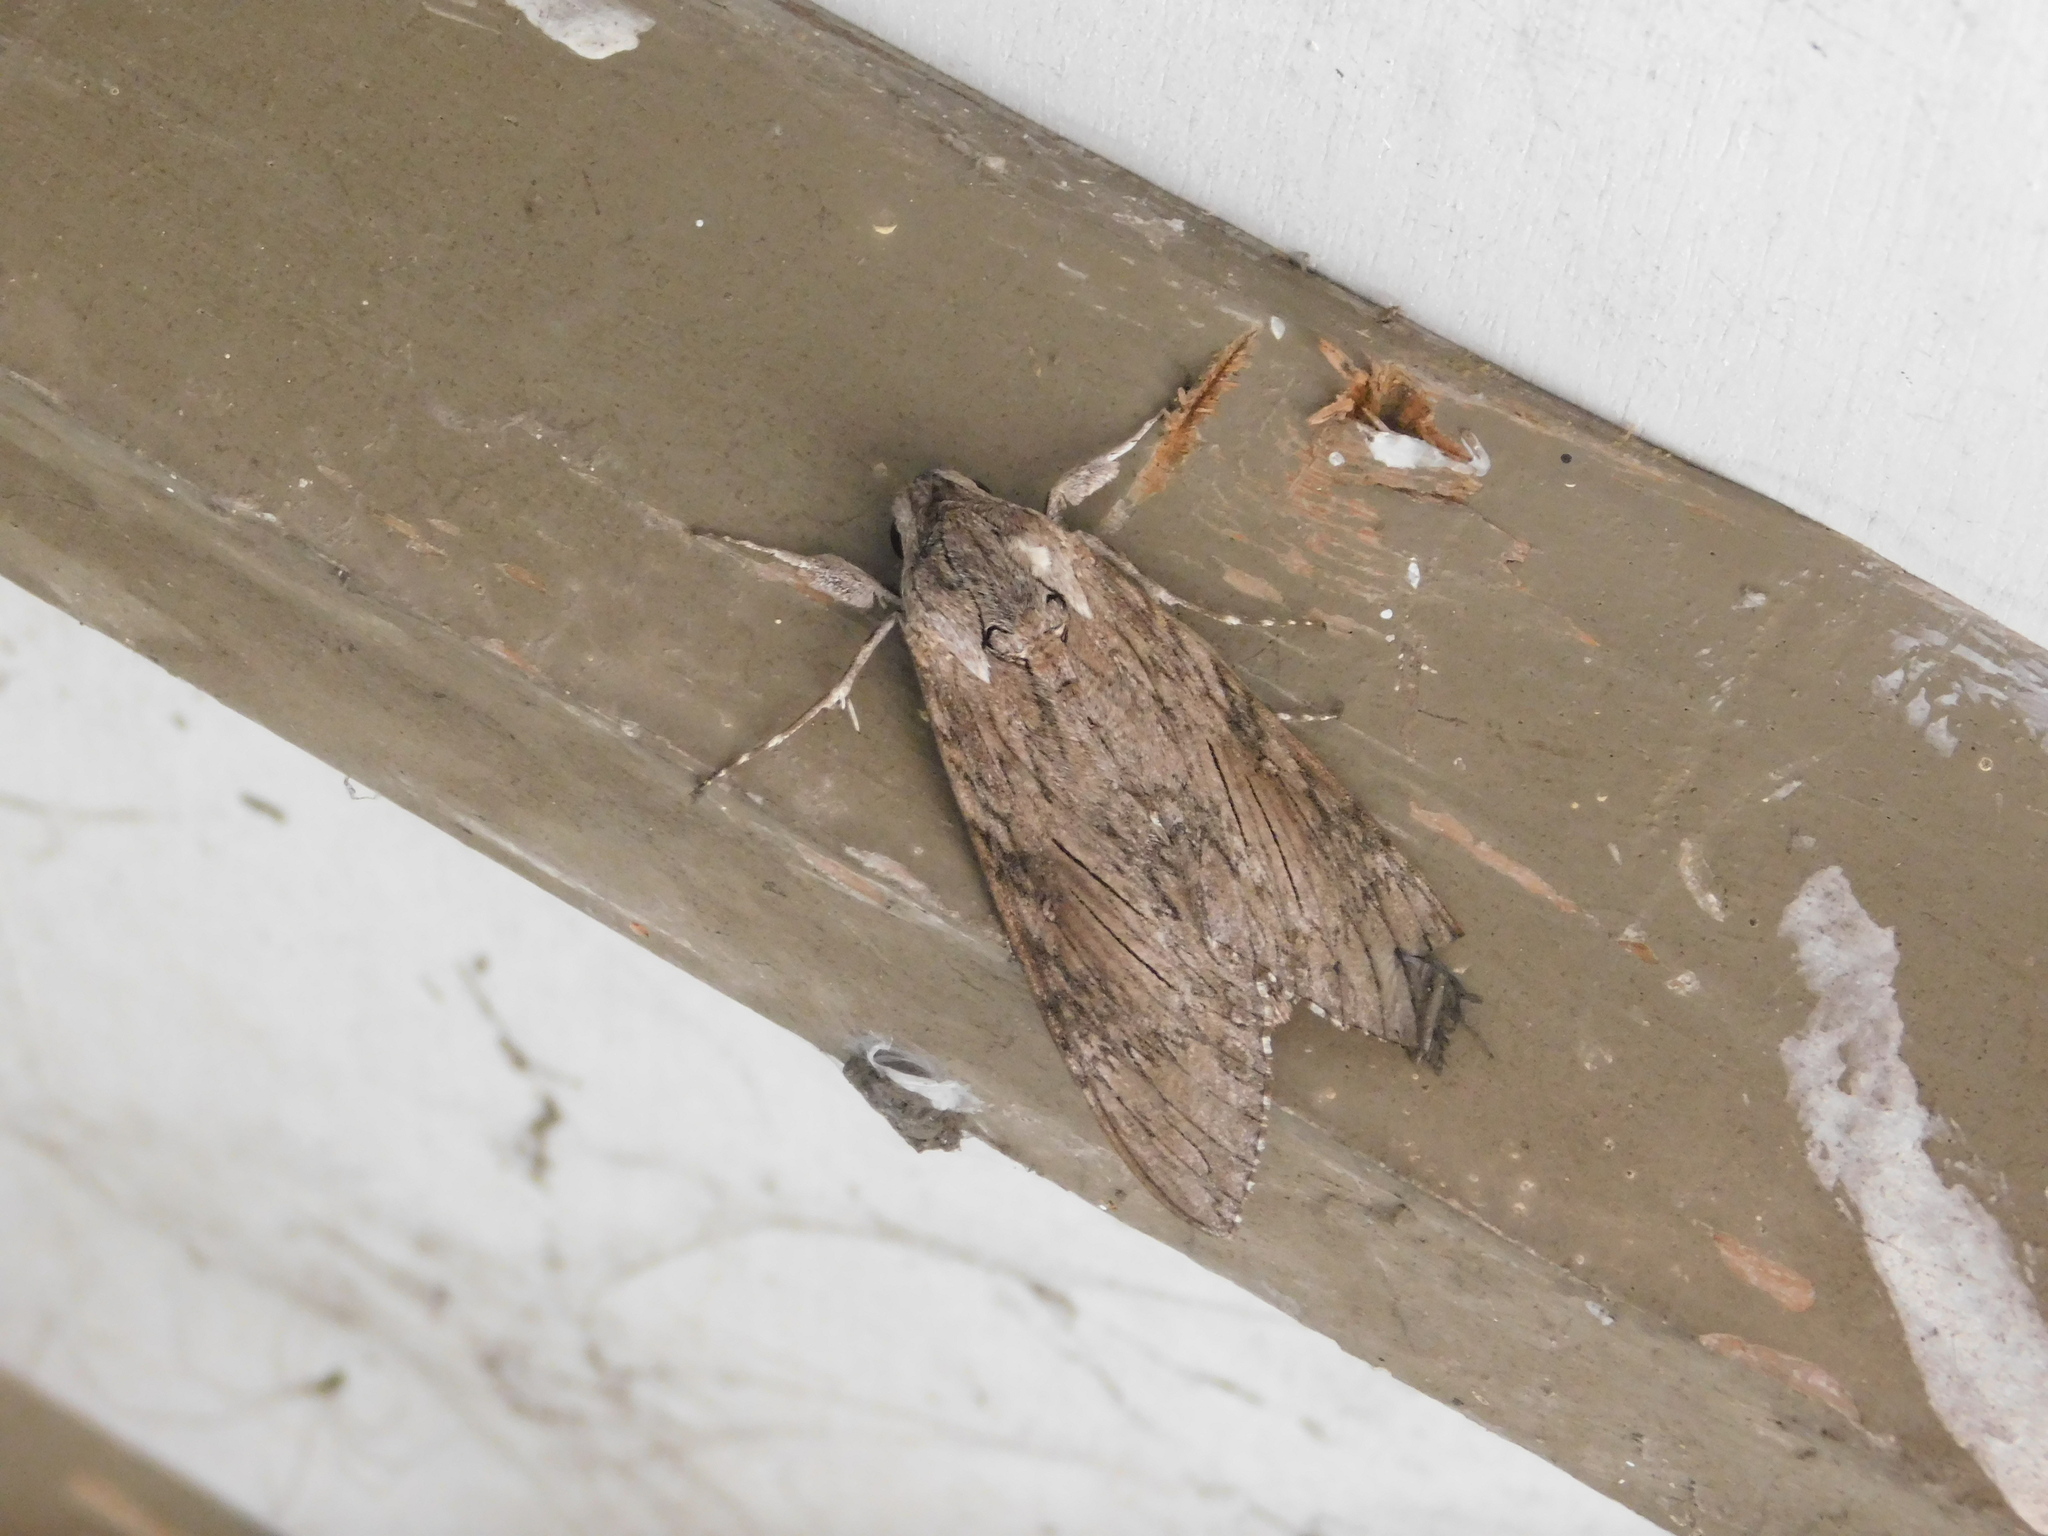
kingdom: Animalia
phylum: Arthropoda
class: Insecta
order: Lepidoptera
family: Sphingidae
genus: Agrius
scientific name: Agrius convolvuli
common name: Convolvulus hawkmoth
